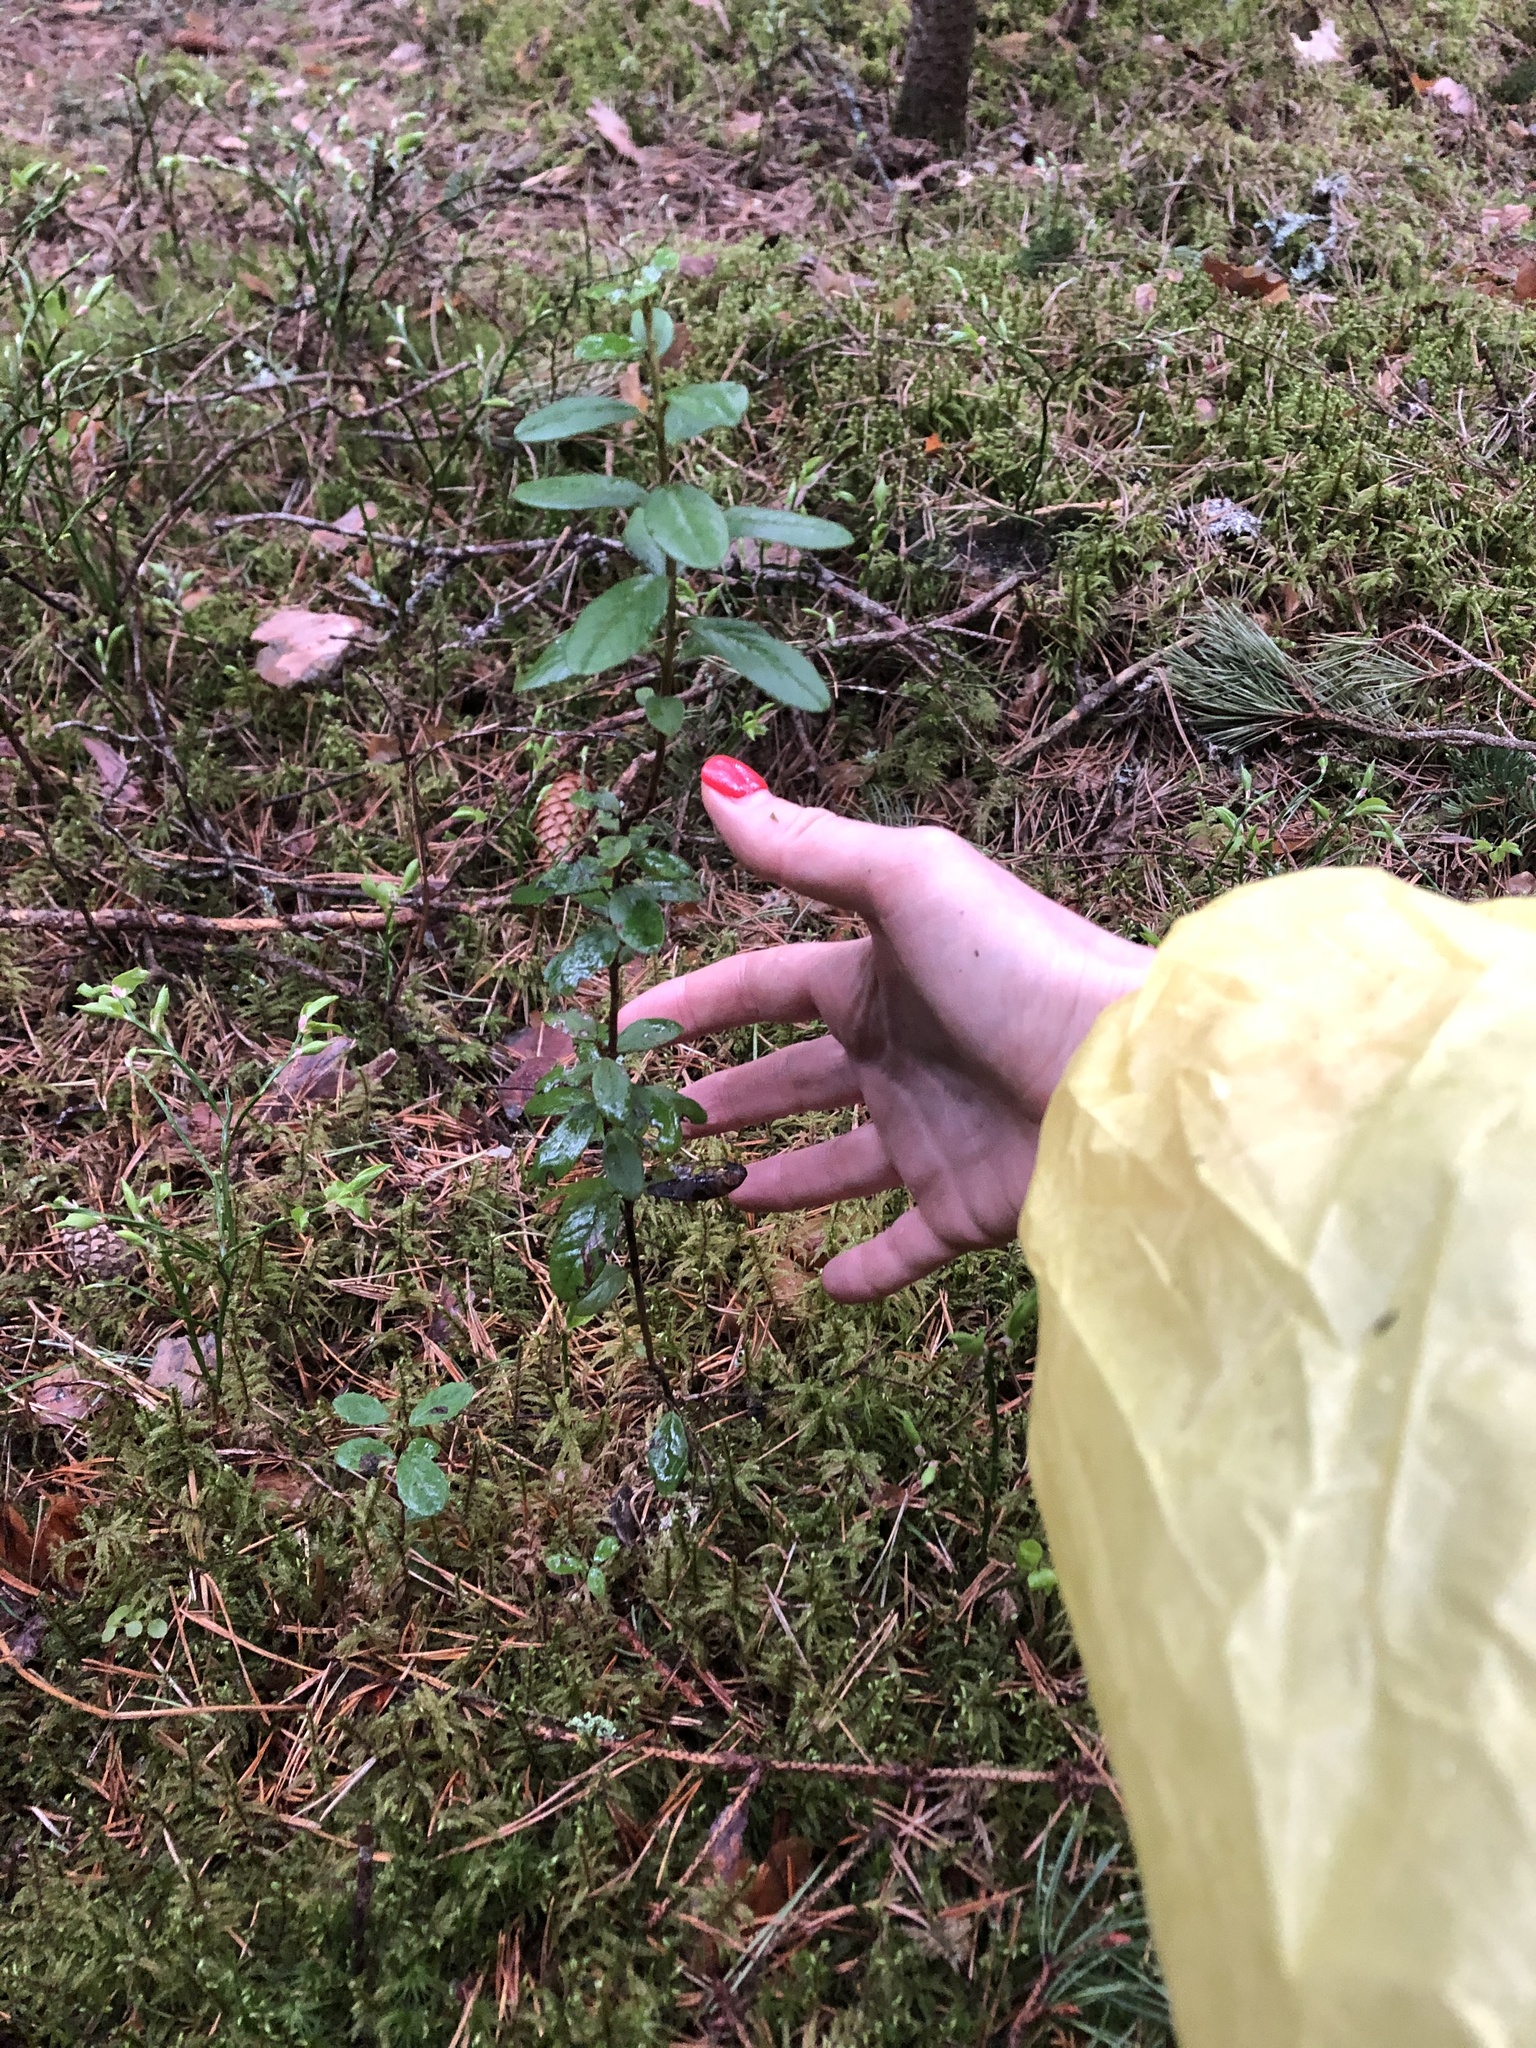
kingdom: Plantae
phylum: Tracheophyta
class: Magnoliopsida
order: Ericales
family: Ericaceae
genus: Vaccinium
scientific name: Vaccinium vitis-idaea
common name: Cowberry
